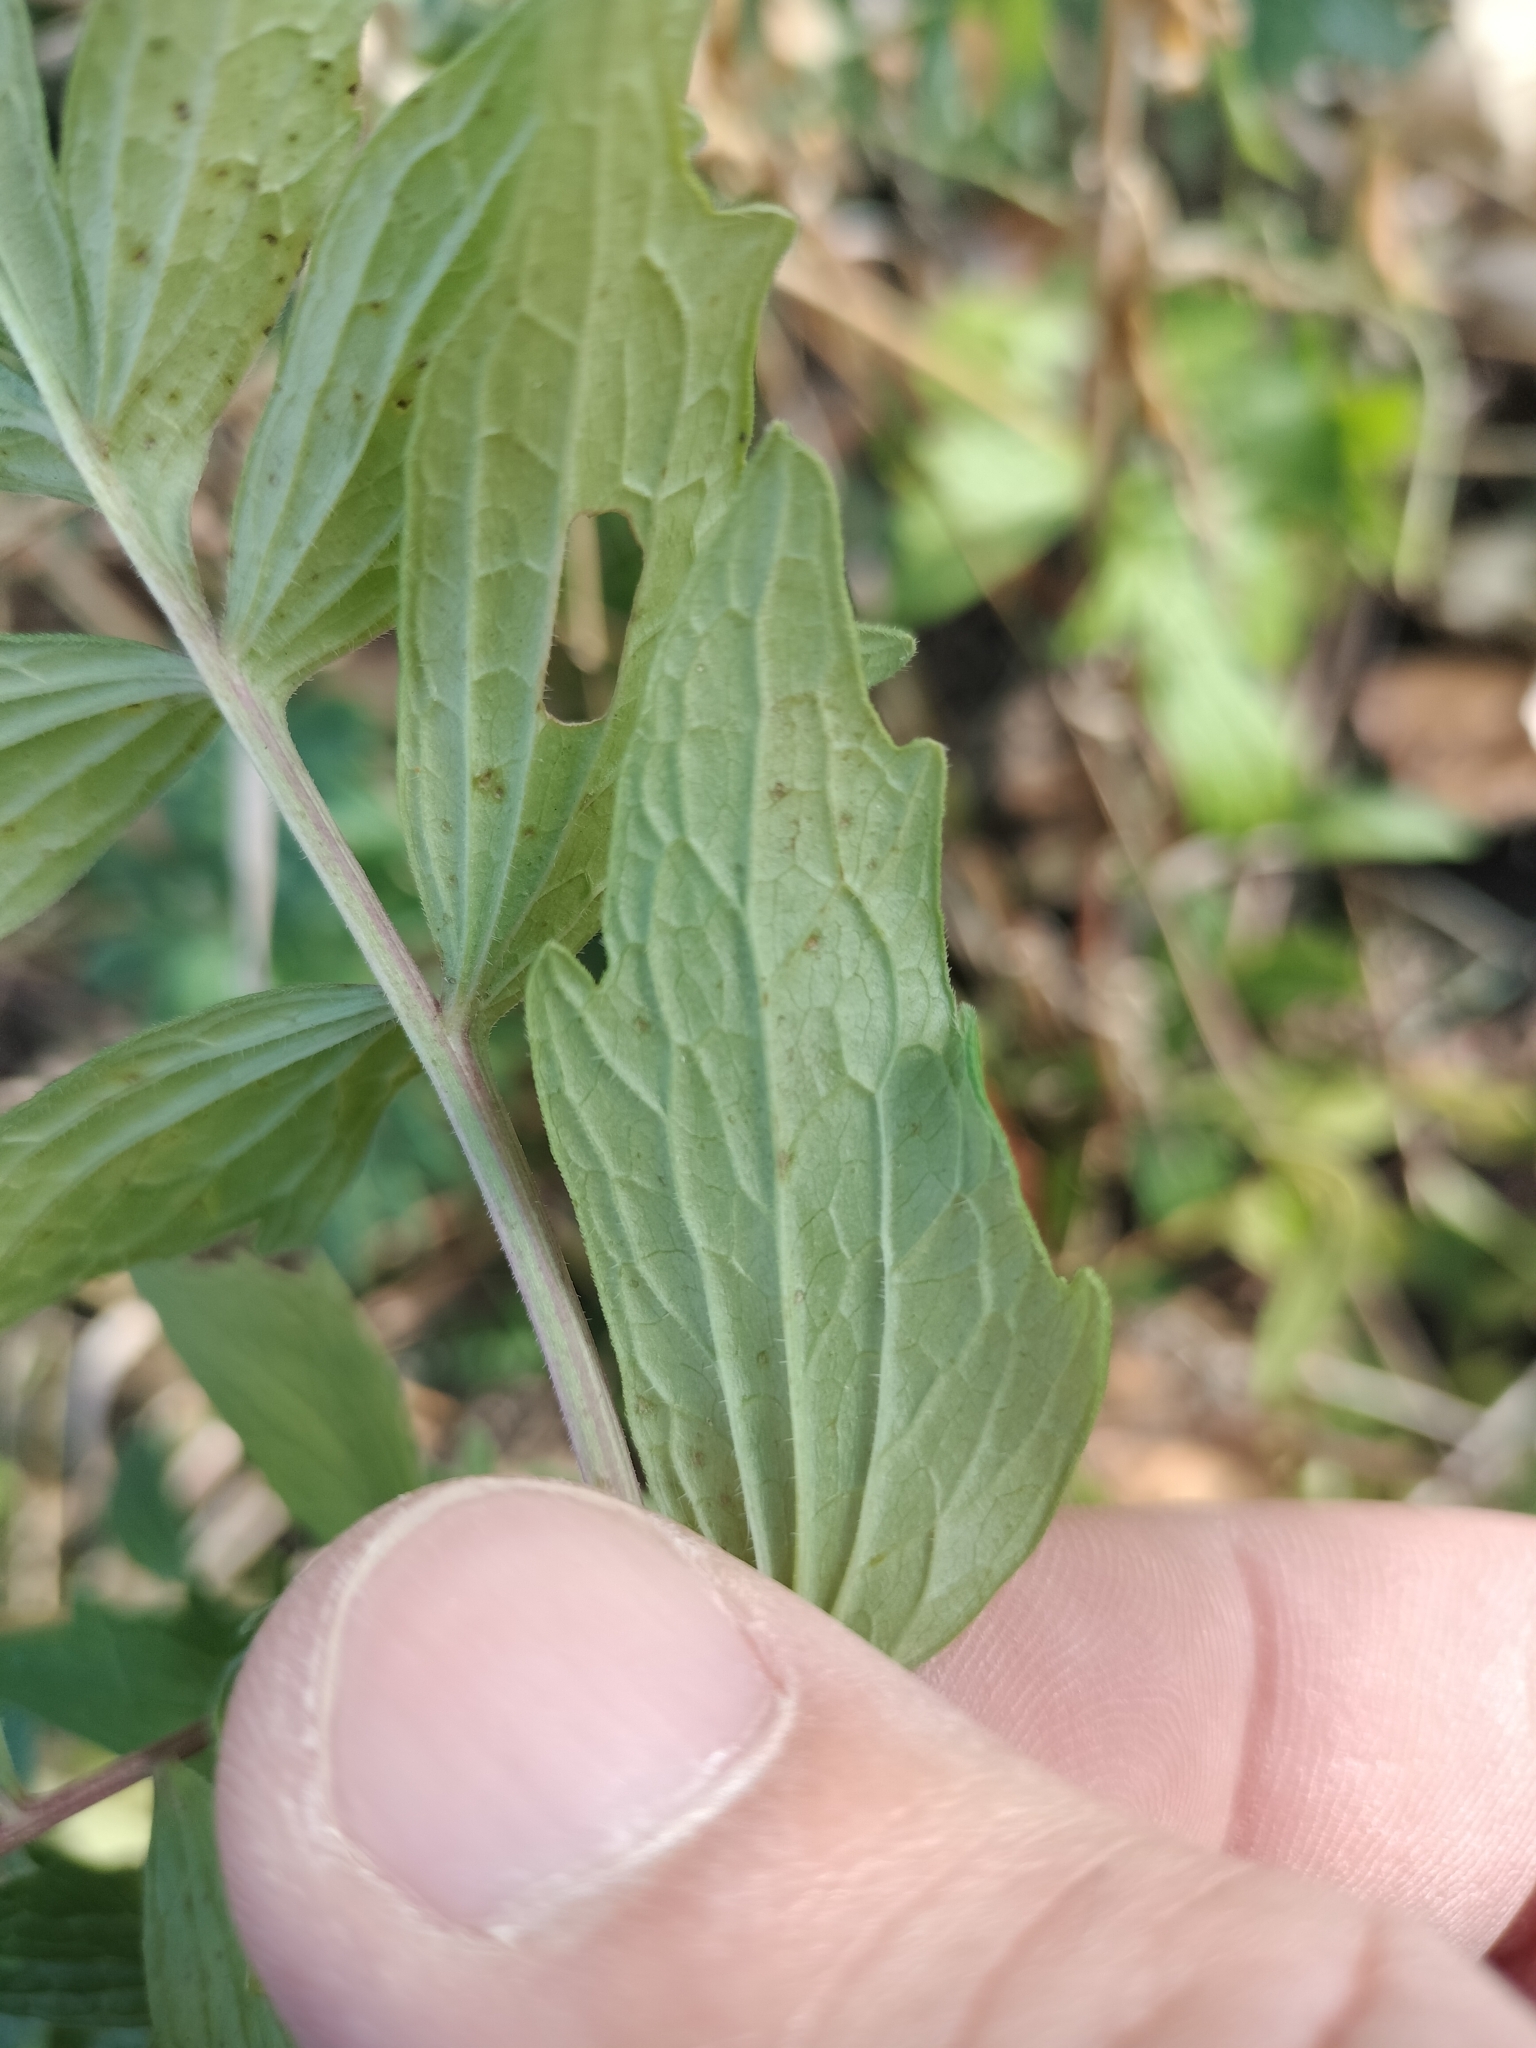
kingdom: Plantae
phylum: Tracheophyta
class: Magnoliopsida
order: Dipsacales
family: Caprifoliaceae
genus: Valeriana
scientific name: Valeriana officinalis
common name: Common valerian
